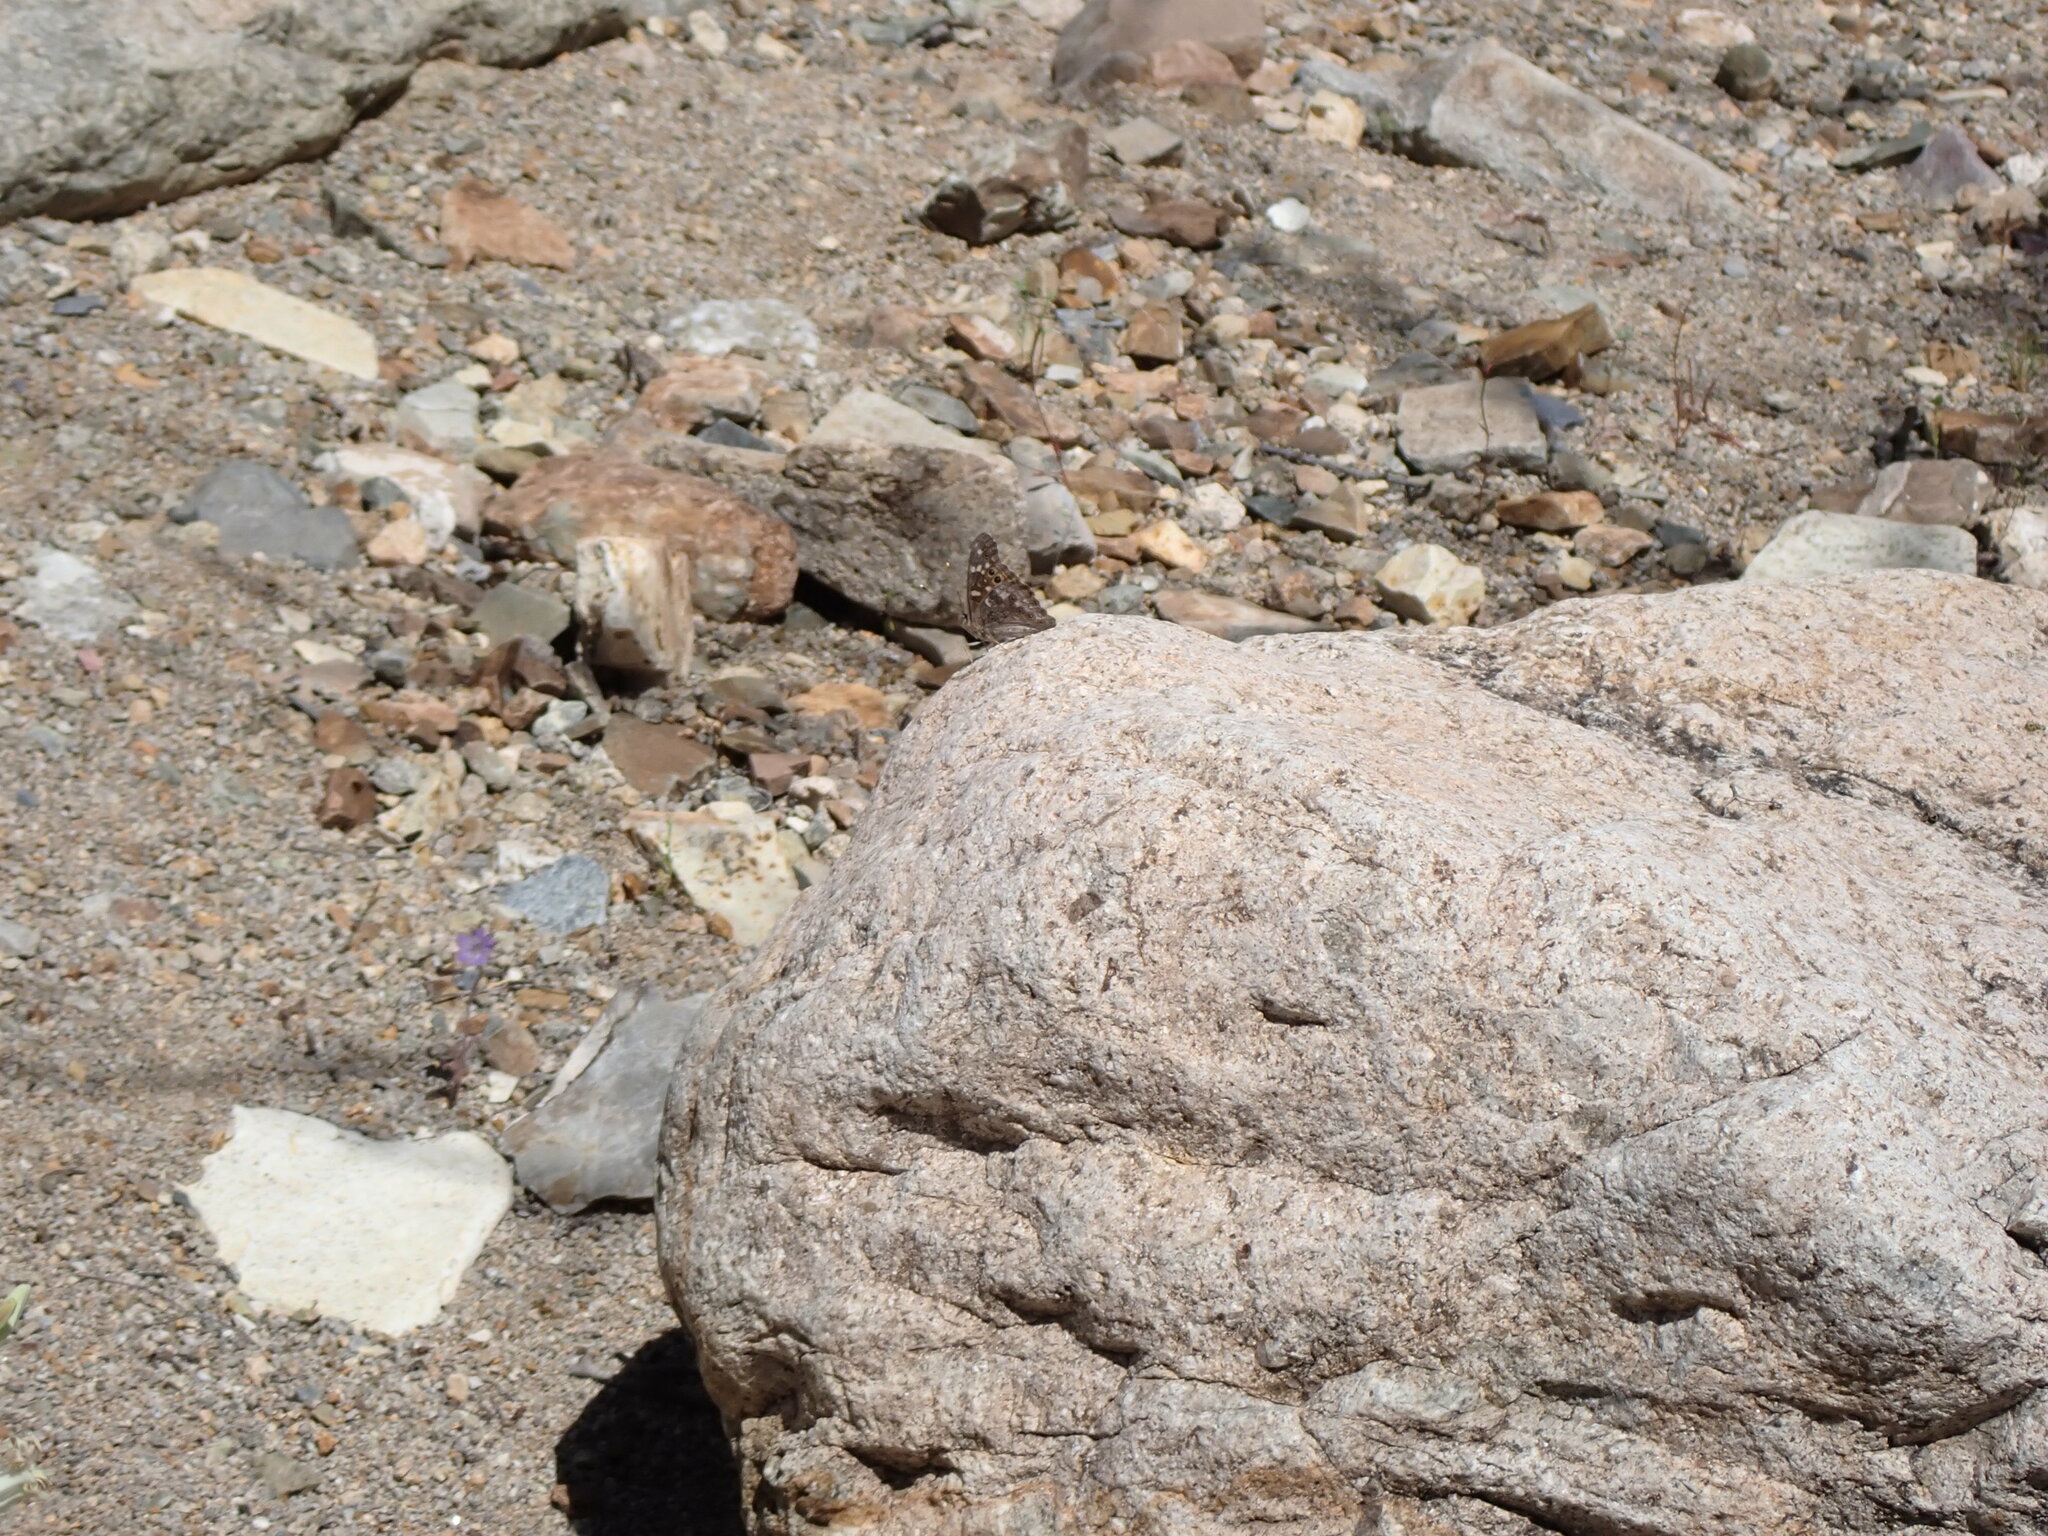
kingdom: Animalia
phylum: Arthropoda
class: Insecta
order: Lepidoptera
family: Nymphalidae
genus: Asterocampa
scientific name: Asterocampa leilia
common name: Empress leilia
